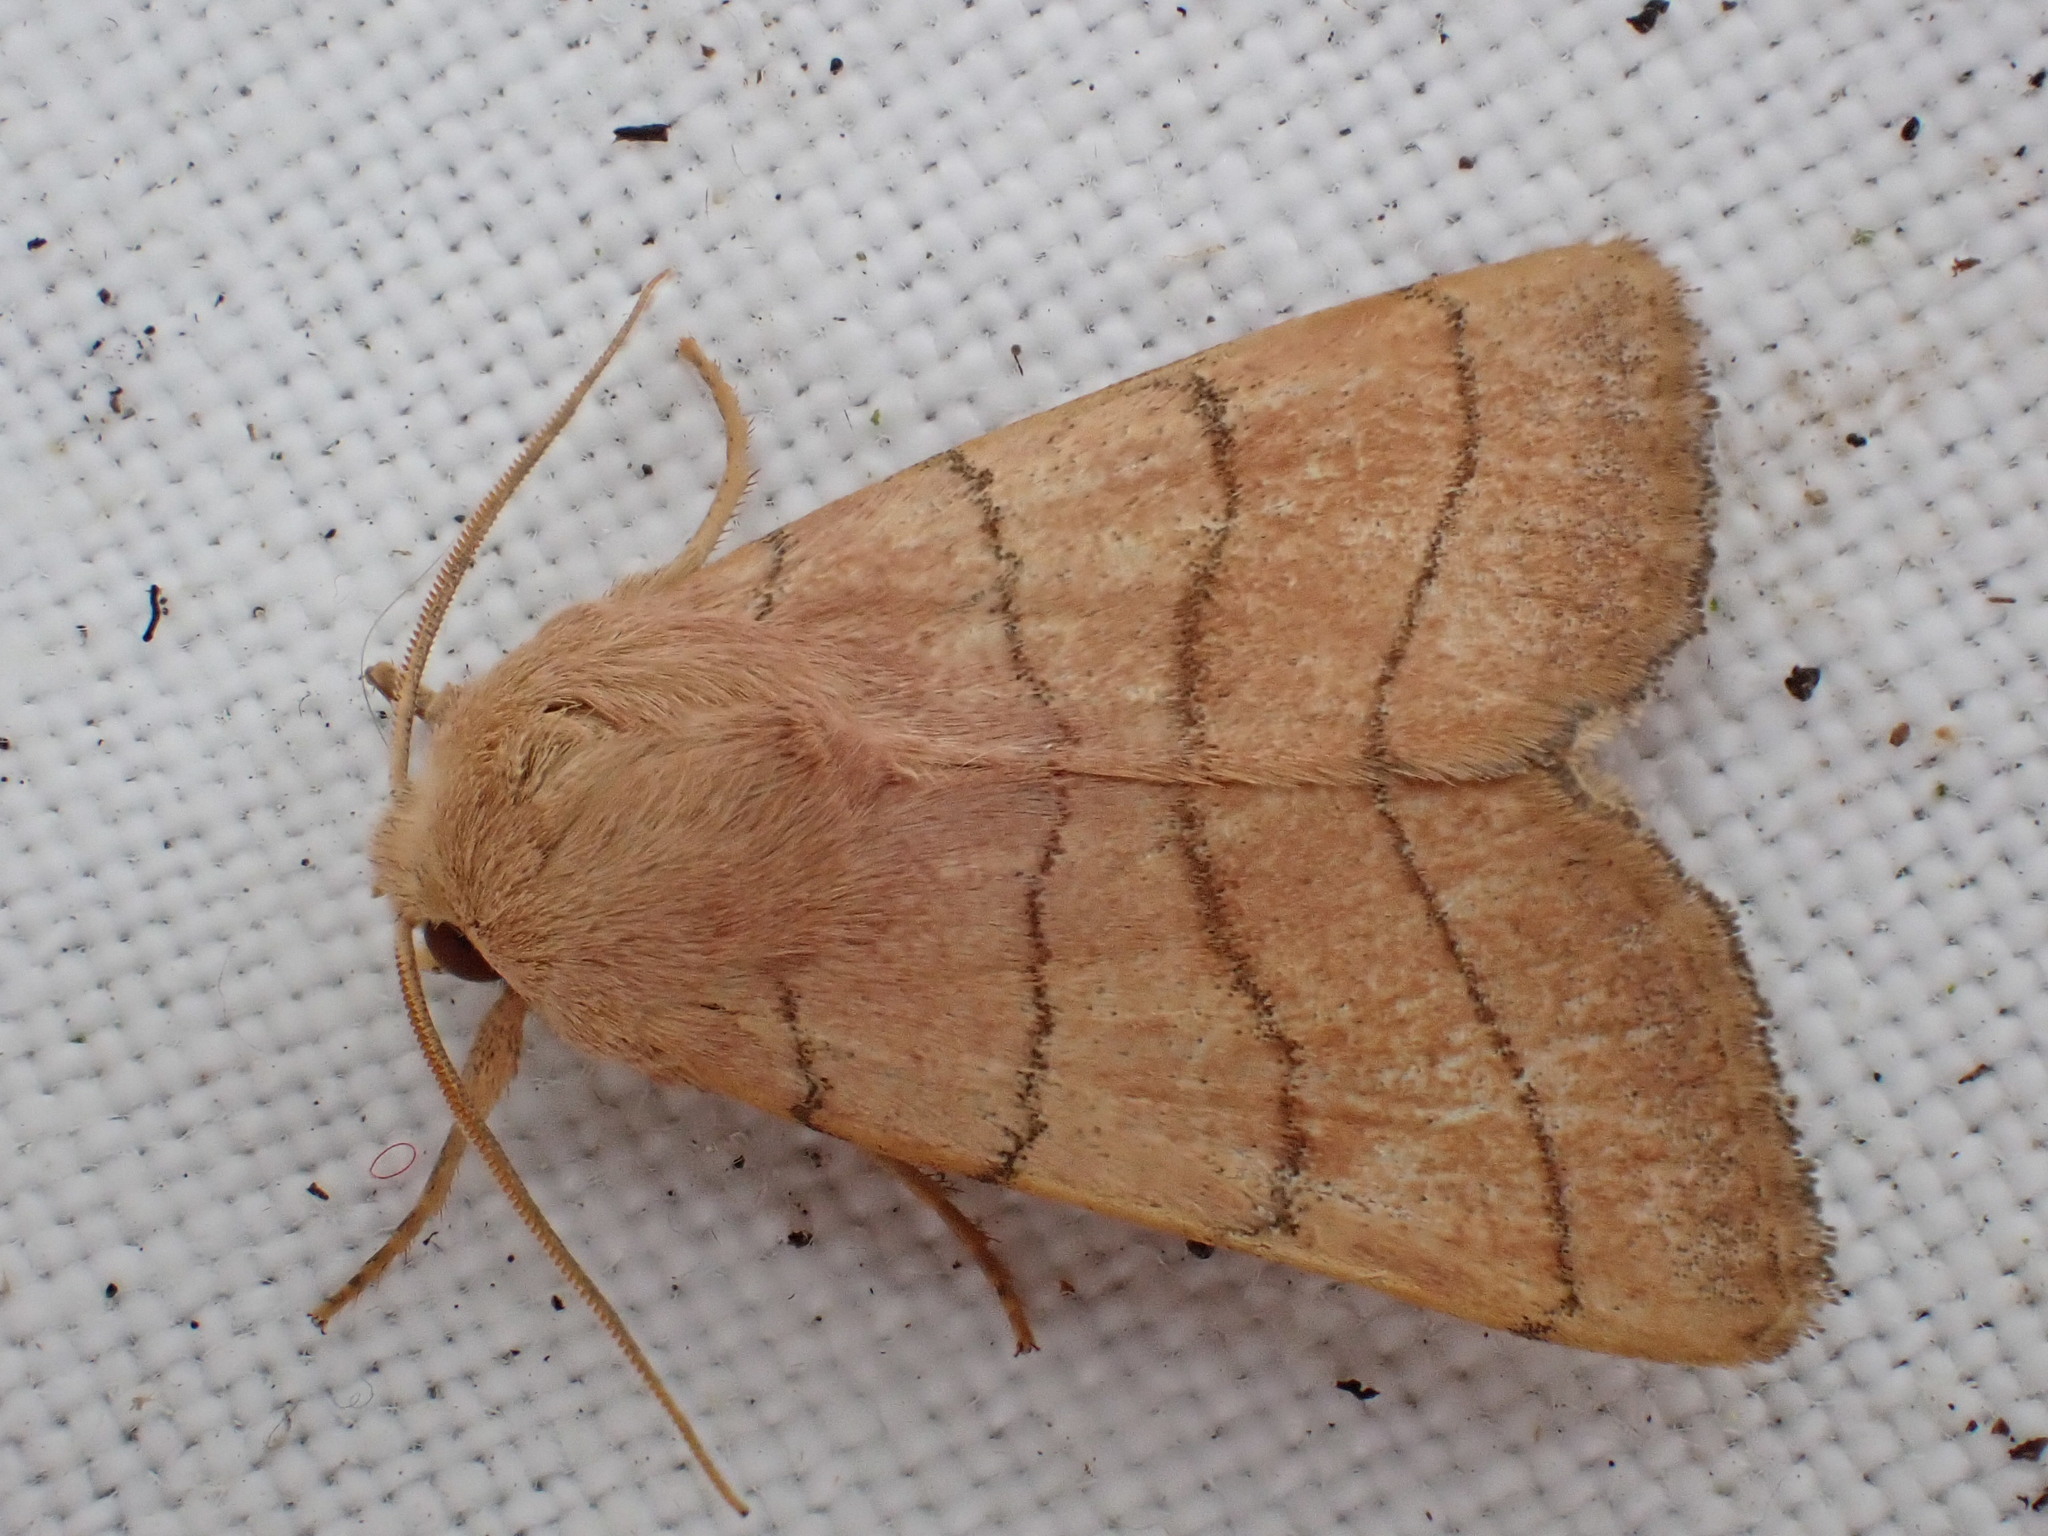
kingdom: Animalia
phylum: Arthropoda
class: Insecta
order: Lepidoptera
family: Noctuidae
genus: Charanyca
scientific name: Charanyca trigrammica
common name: Treble lines
